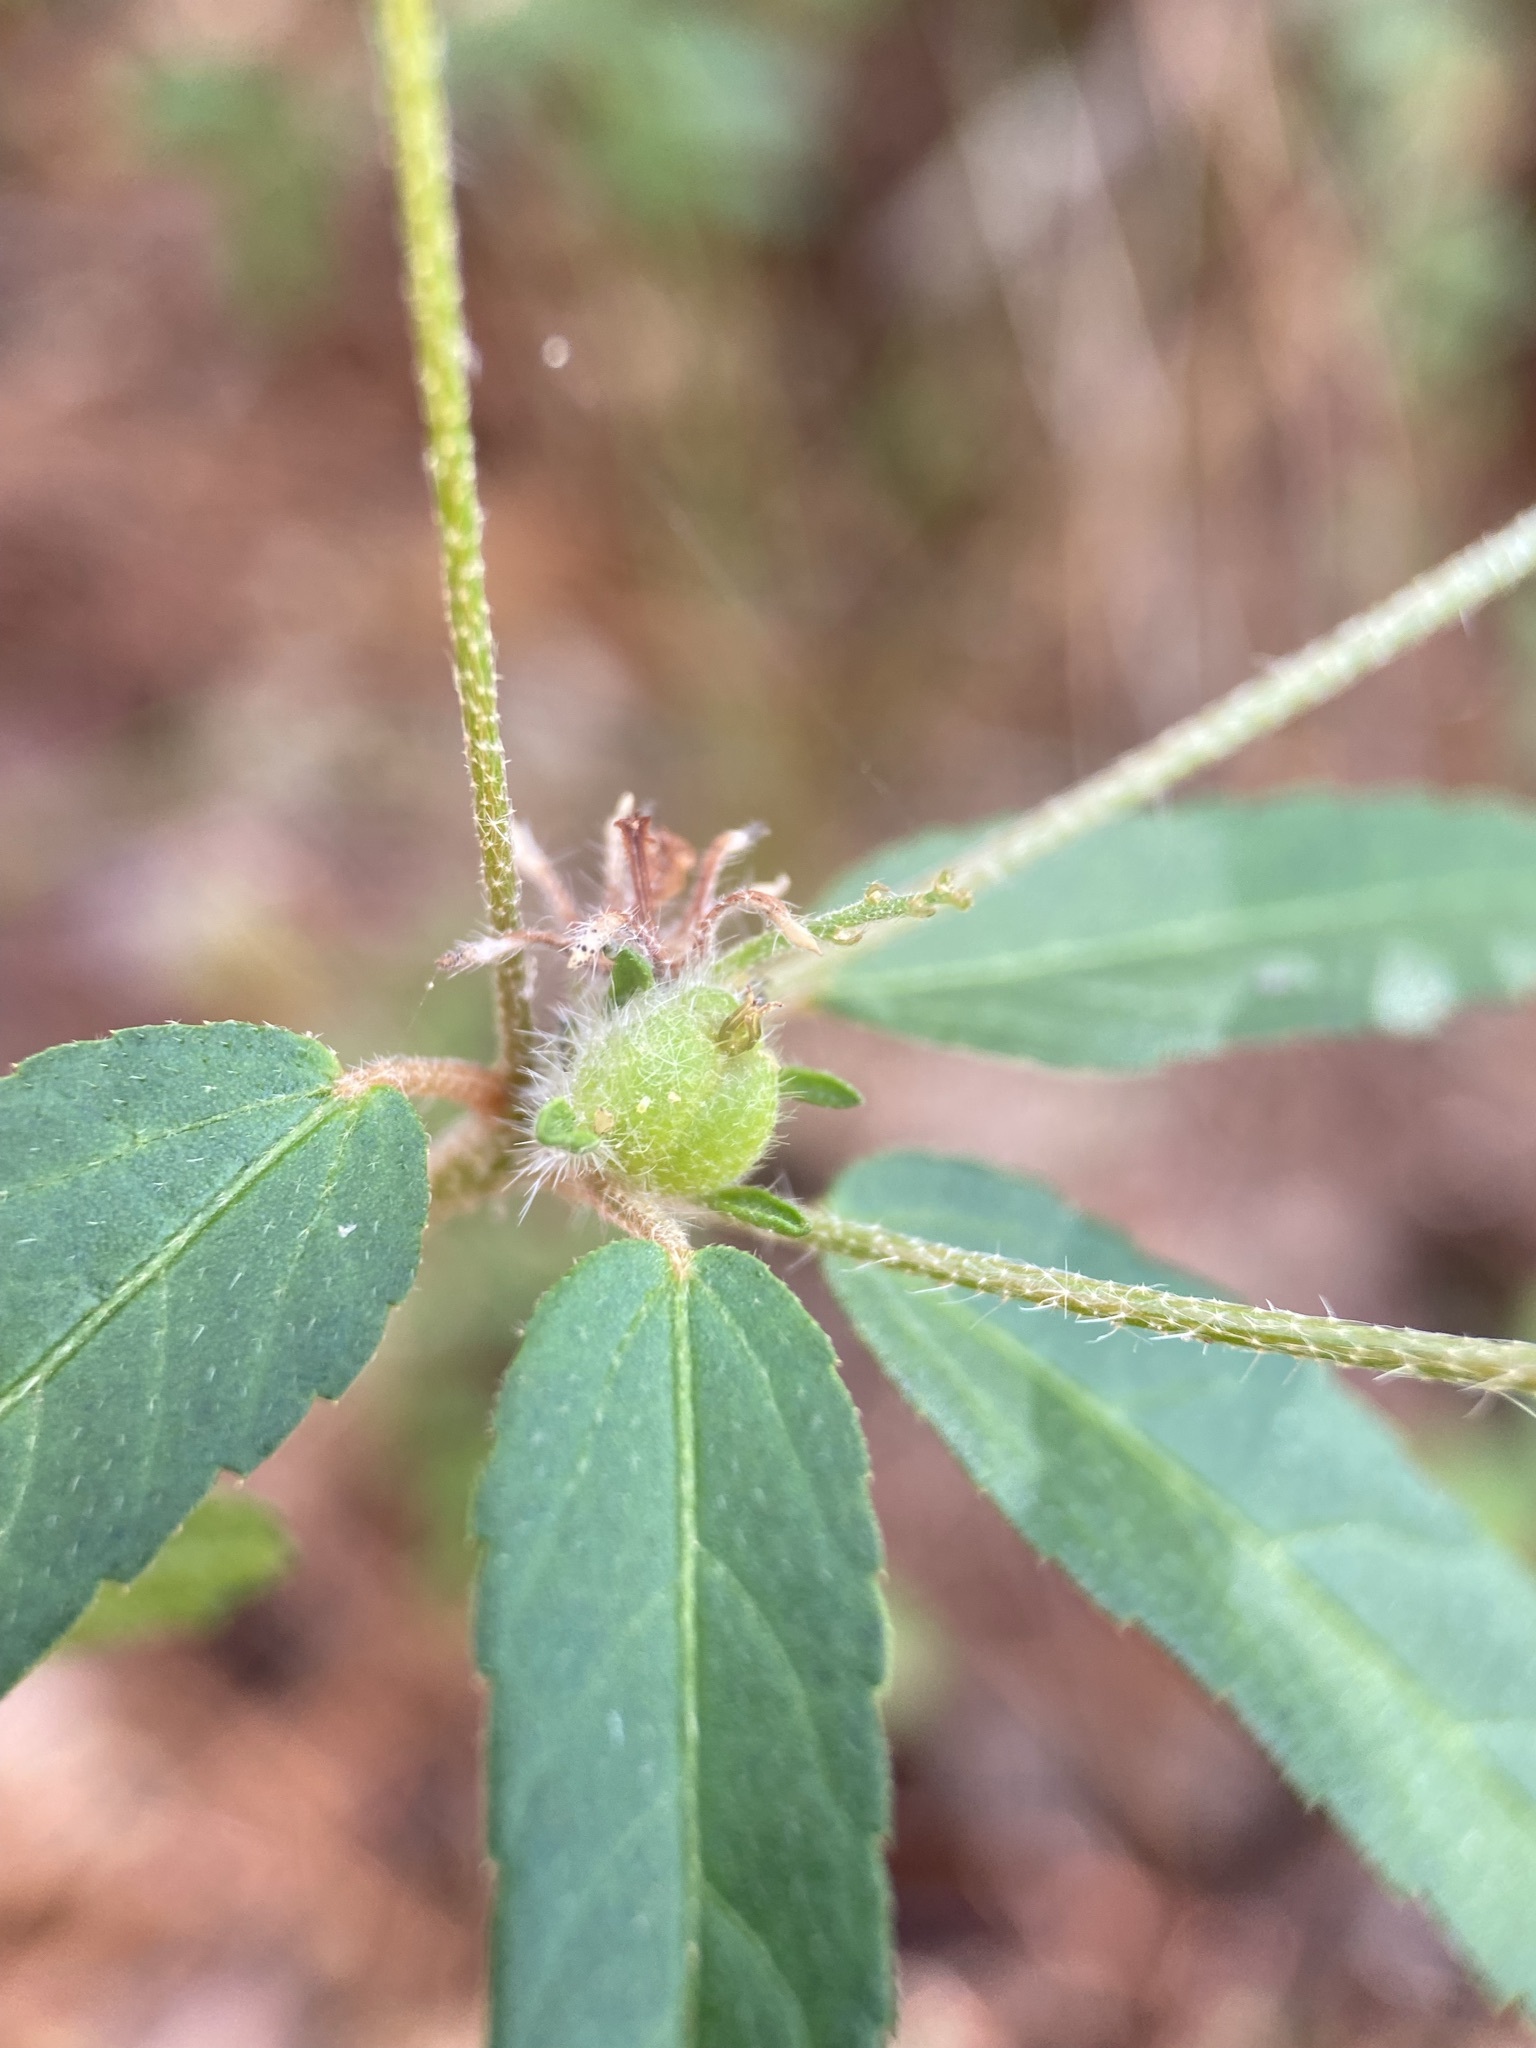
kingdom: Plantae
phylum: Tracheophyta
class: Magnoliopsida
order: Malpighiales
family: Euphorbiaceae
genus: Croton
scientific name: Croton glandulosus
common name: Tropic croton
